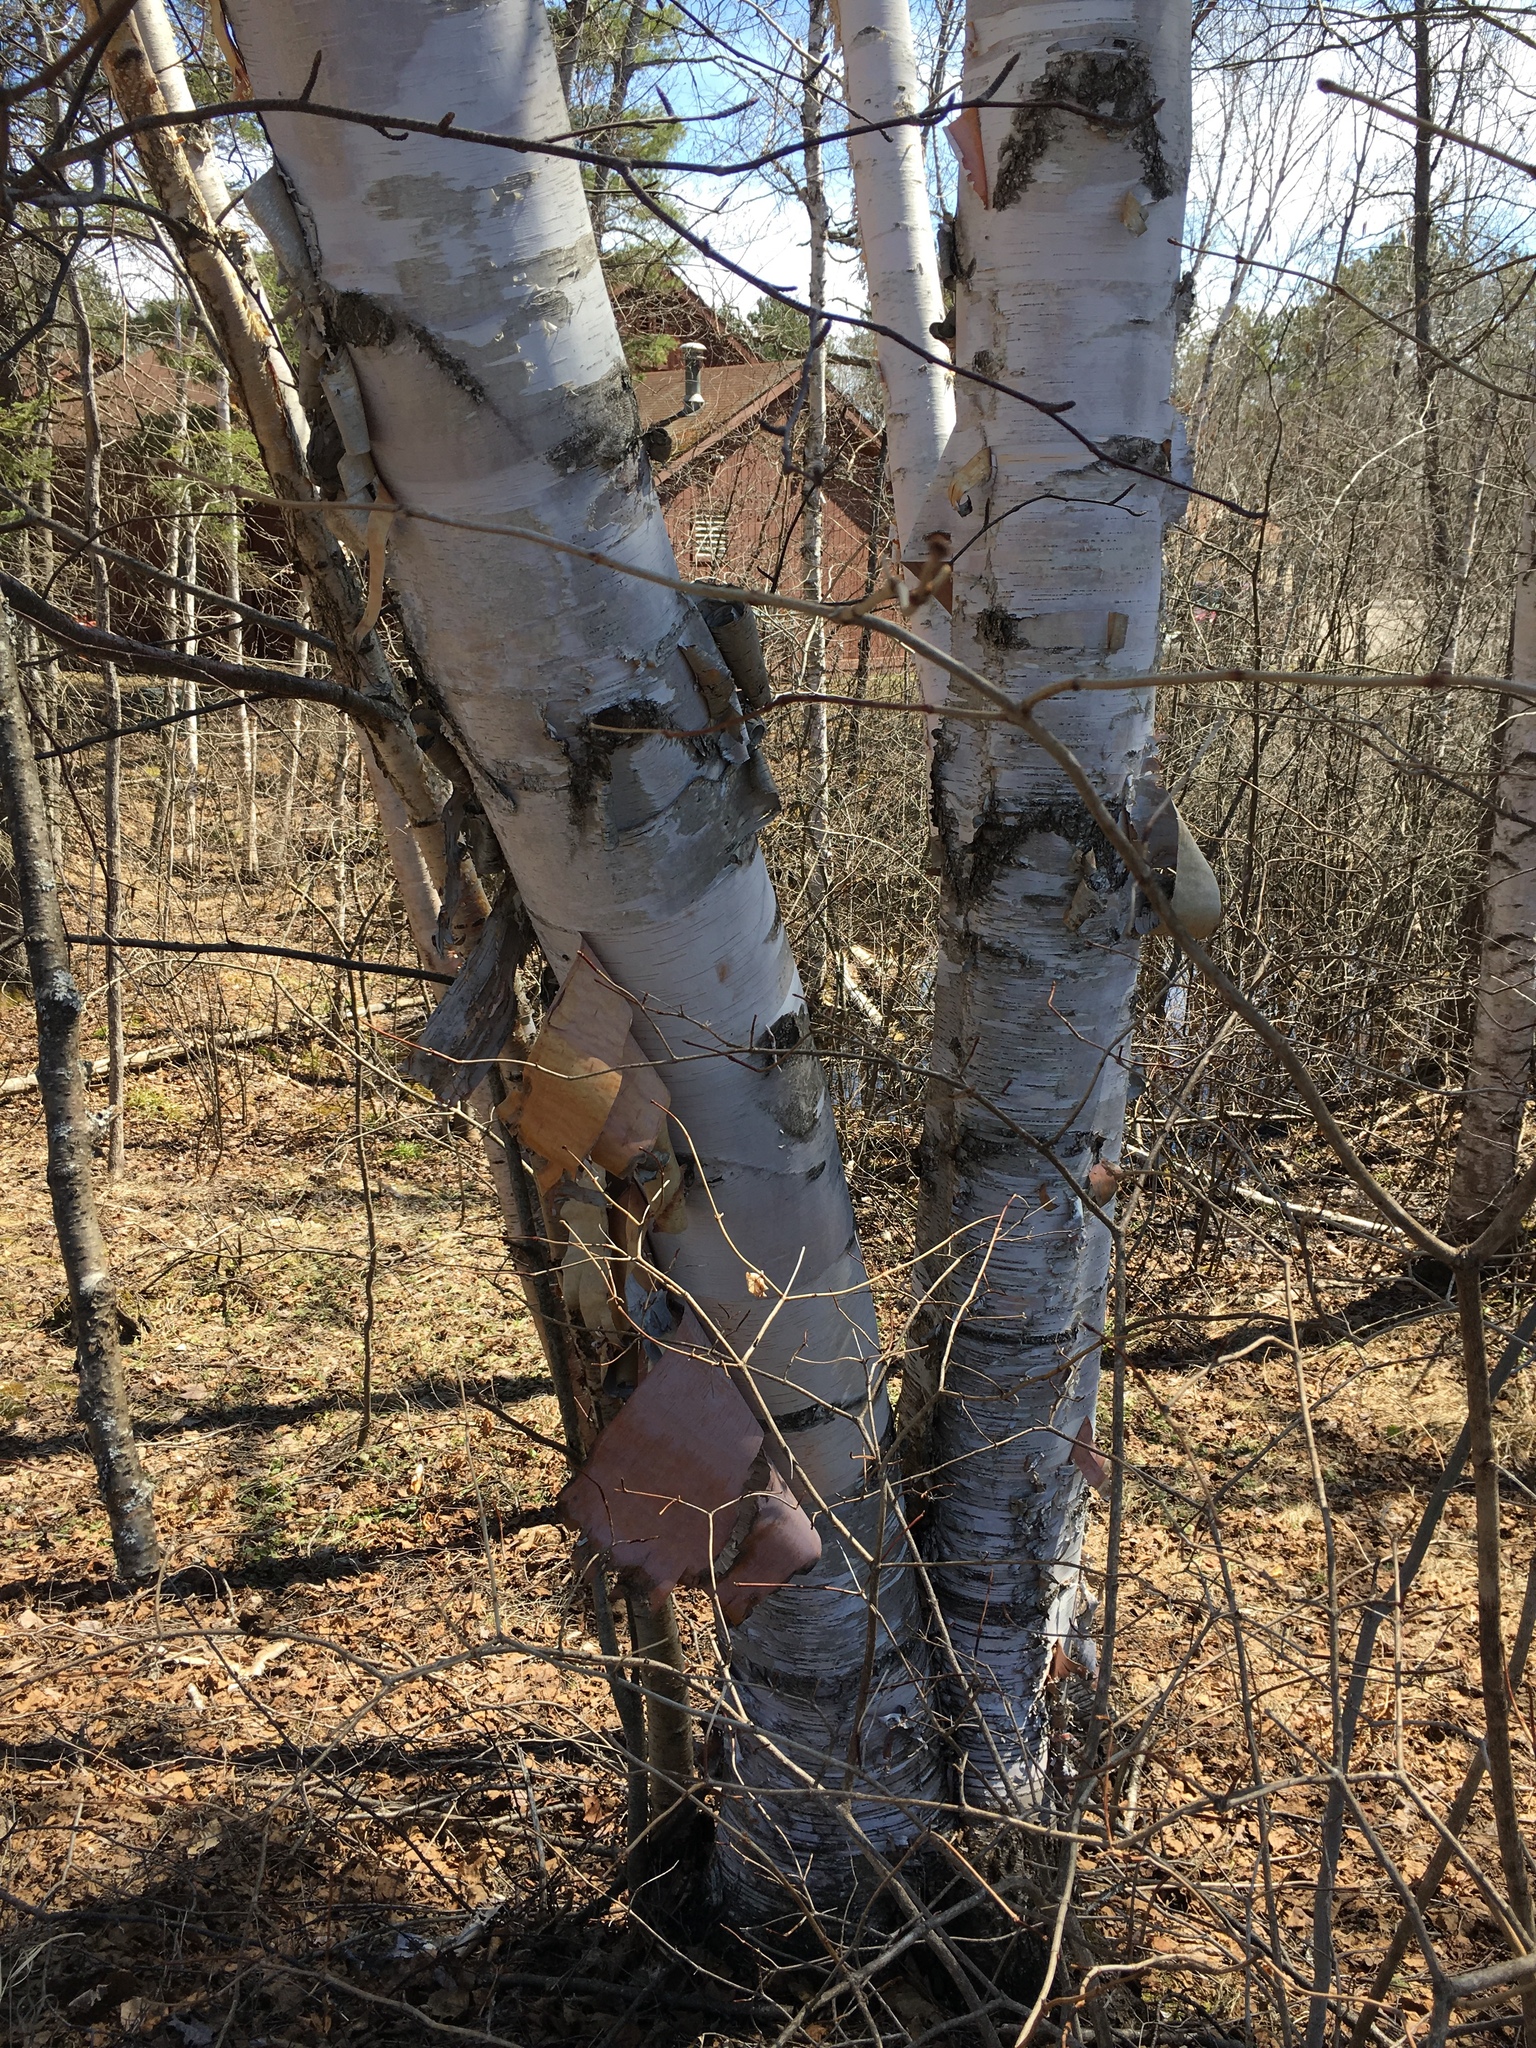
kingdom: Plantae
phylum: Tracheophyta
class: Magnoliopsida
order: Fagales
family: Betulaceae
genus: Betula
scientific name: Betula papyrifera
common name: Paper birch
